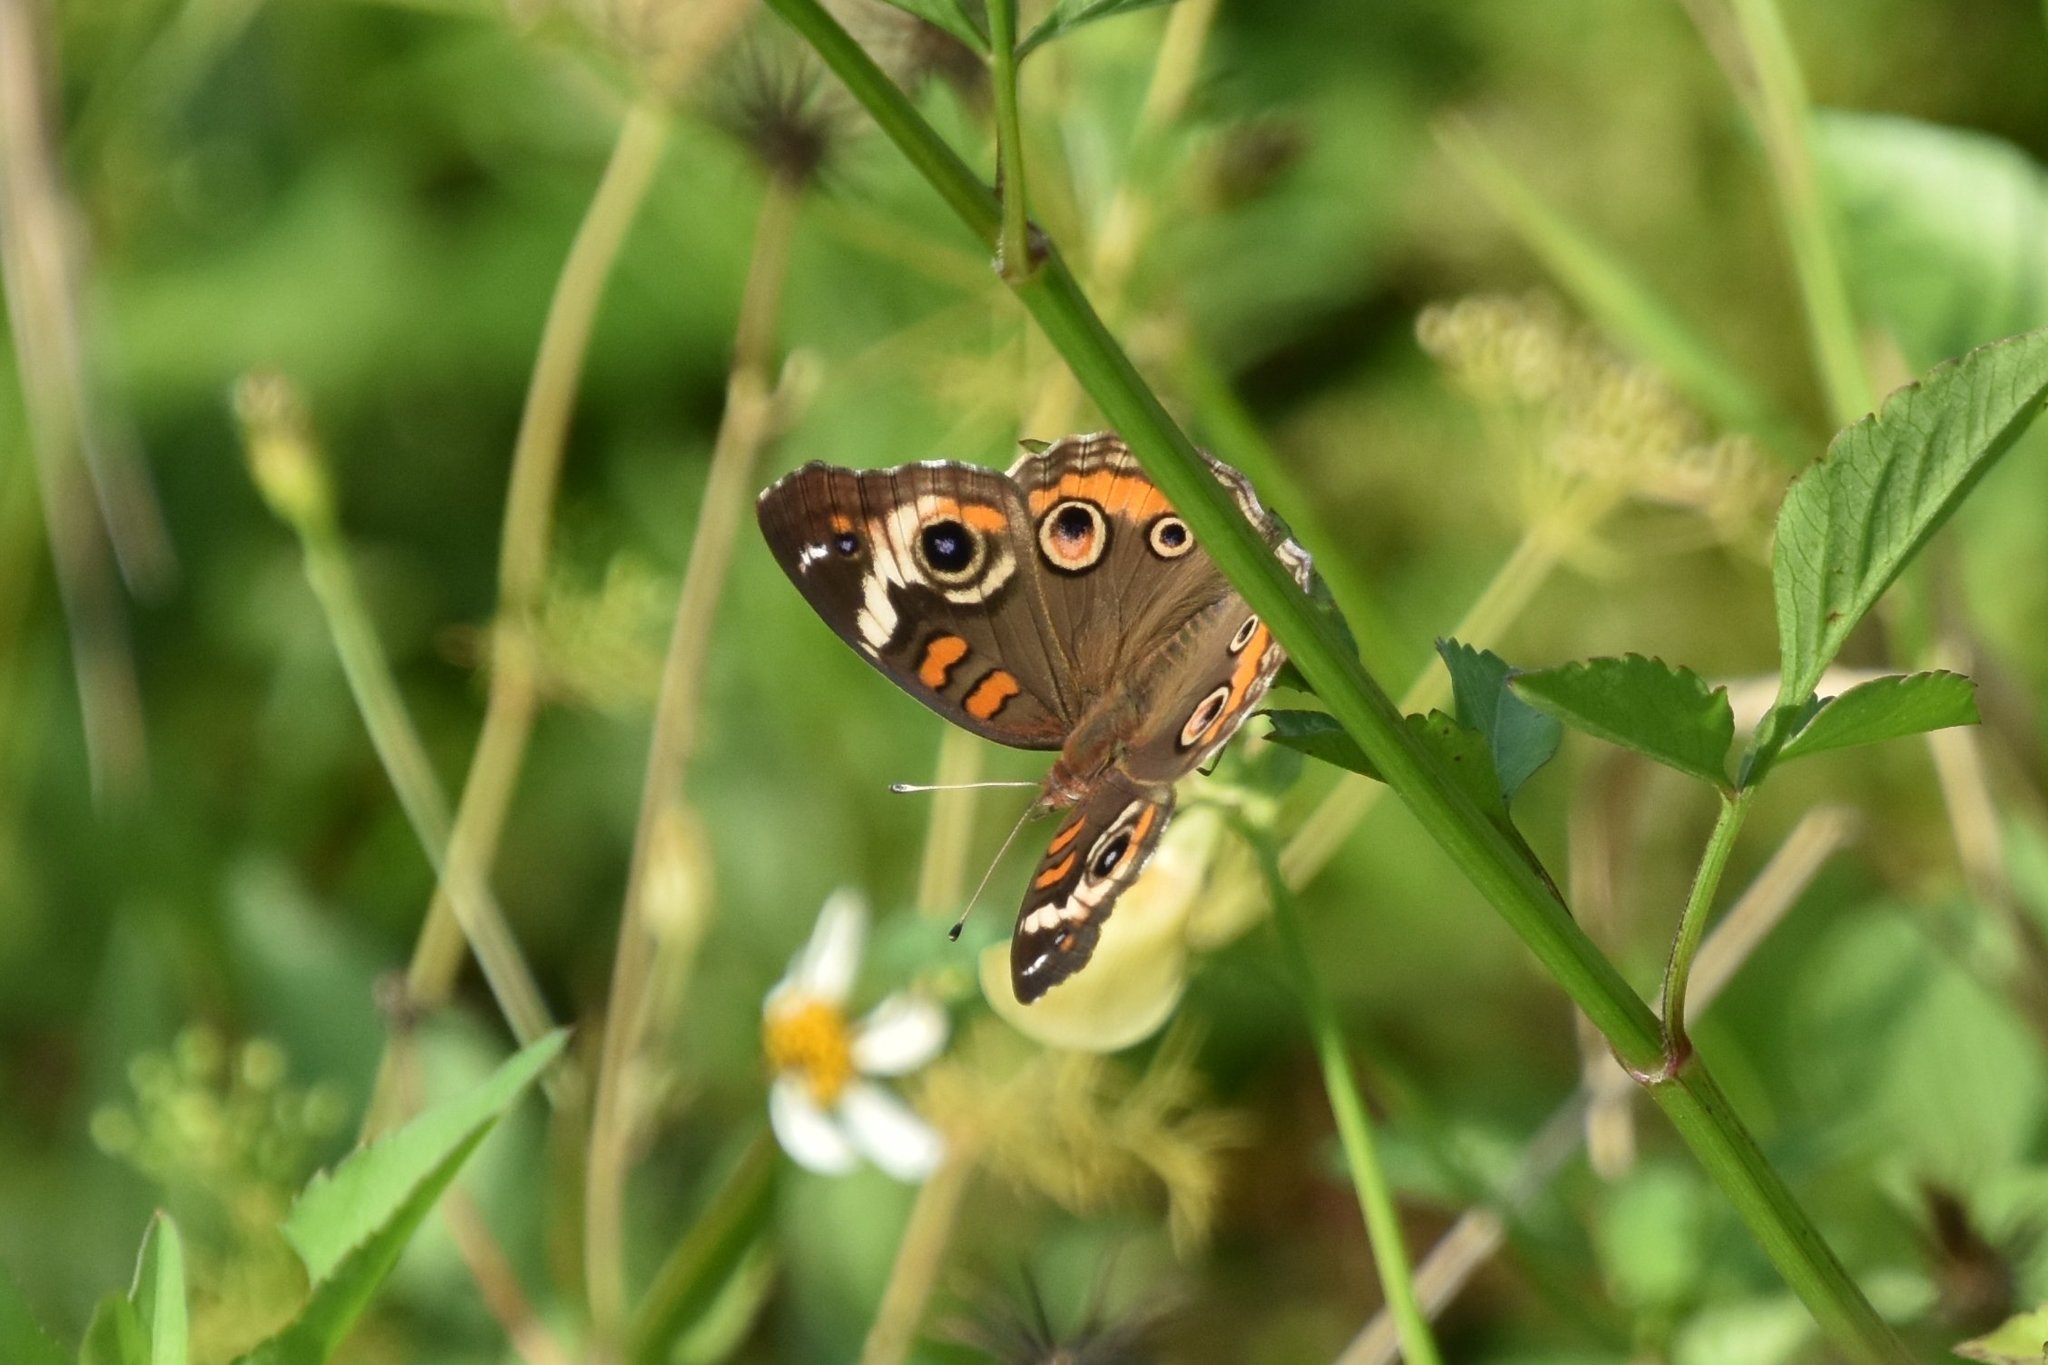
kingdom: Animalia
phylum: Arthropoda
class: Insecta
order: Lepidoptera
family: Nymphalidae
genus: Junonia
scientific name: Junonia coenia
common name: Common buckeye
